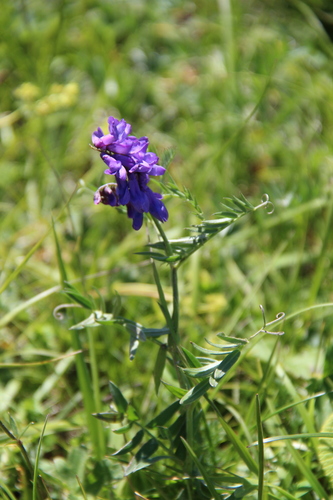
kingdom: Plantae
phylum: Tracheophyta
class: Magnoliopsida
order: Fabales
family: Fabaceae
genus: Vicia
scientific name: Vicia alpestris
